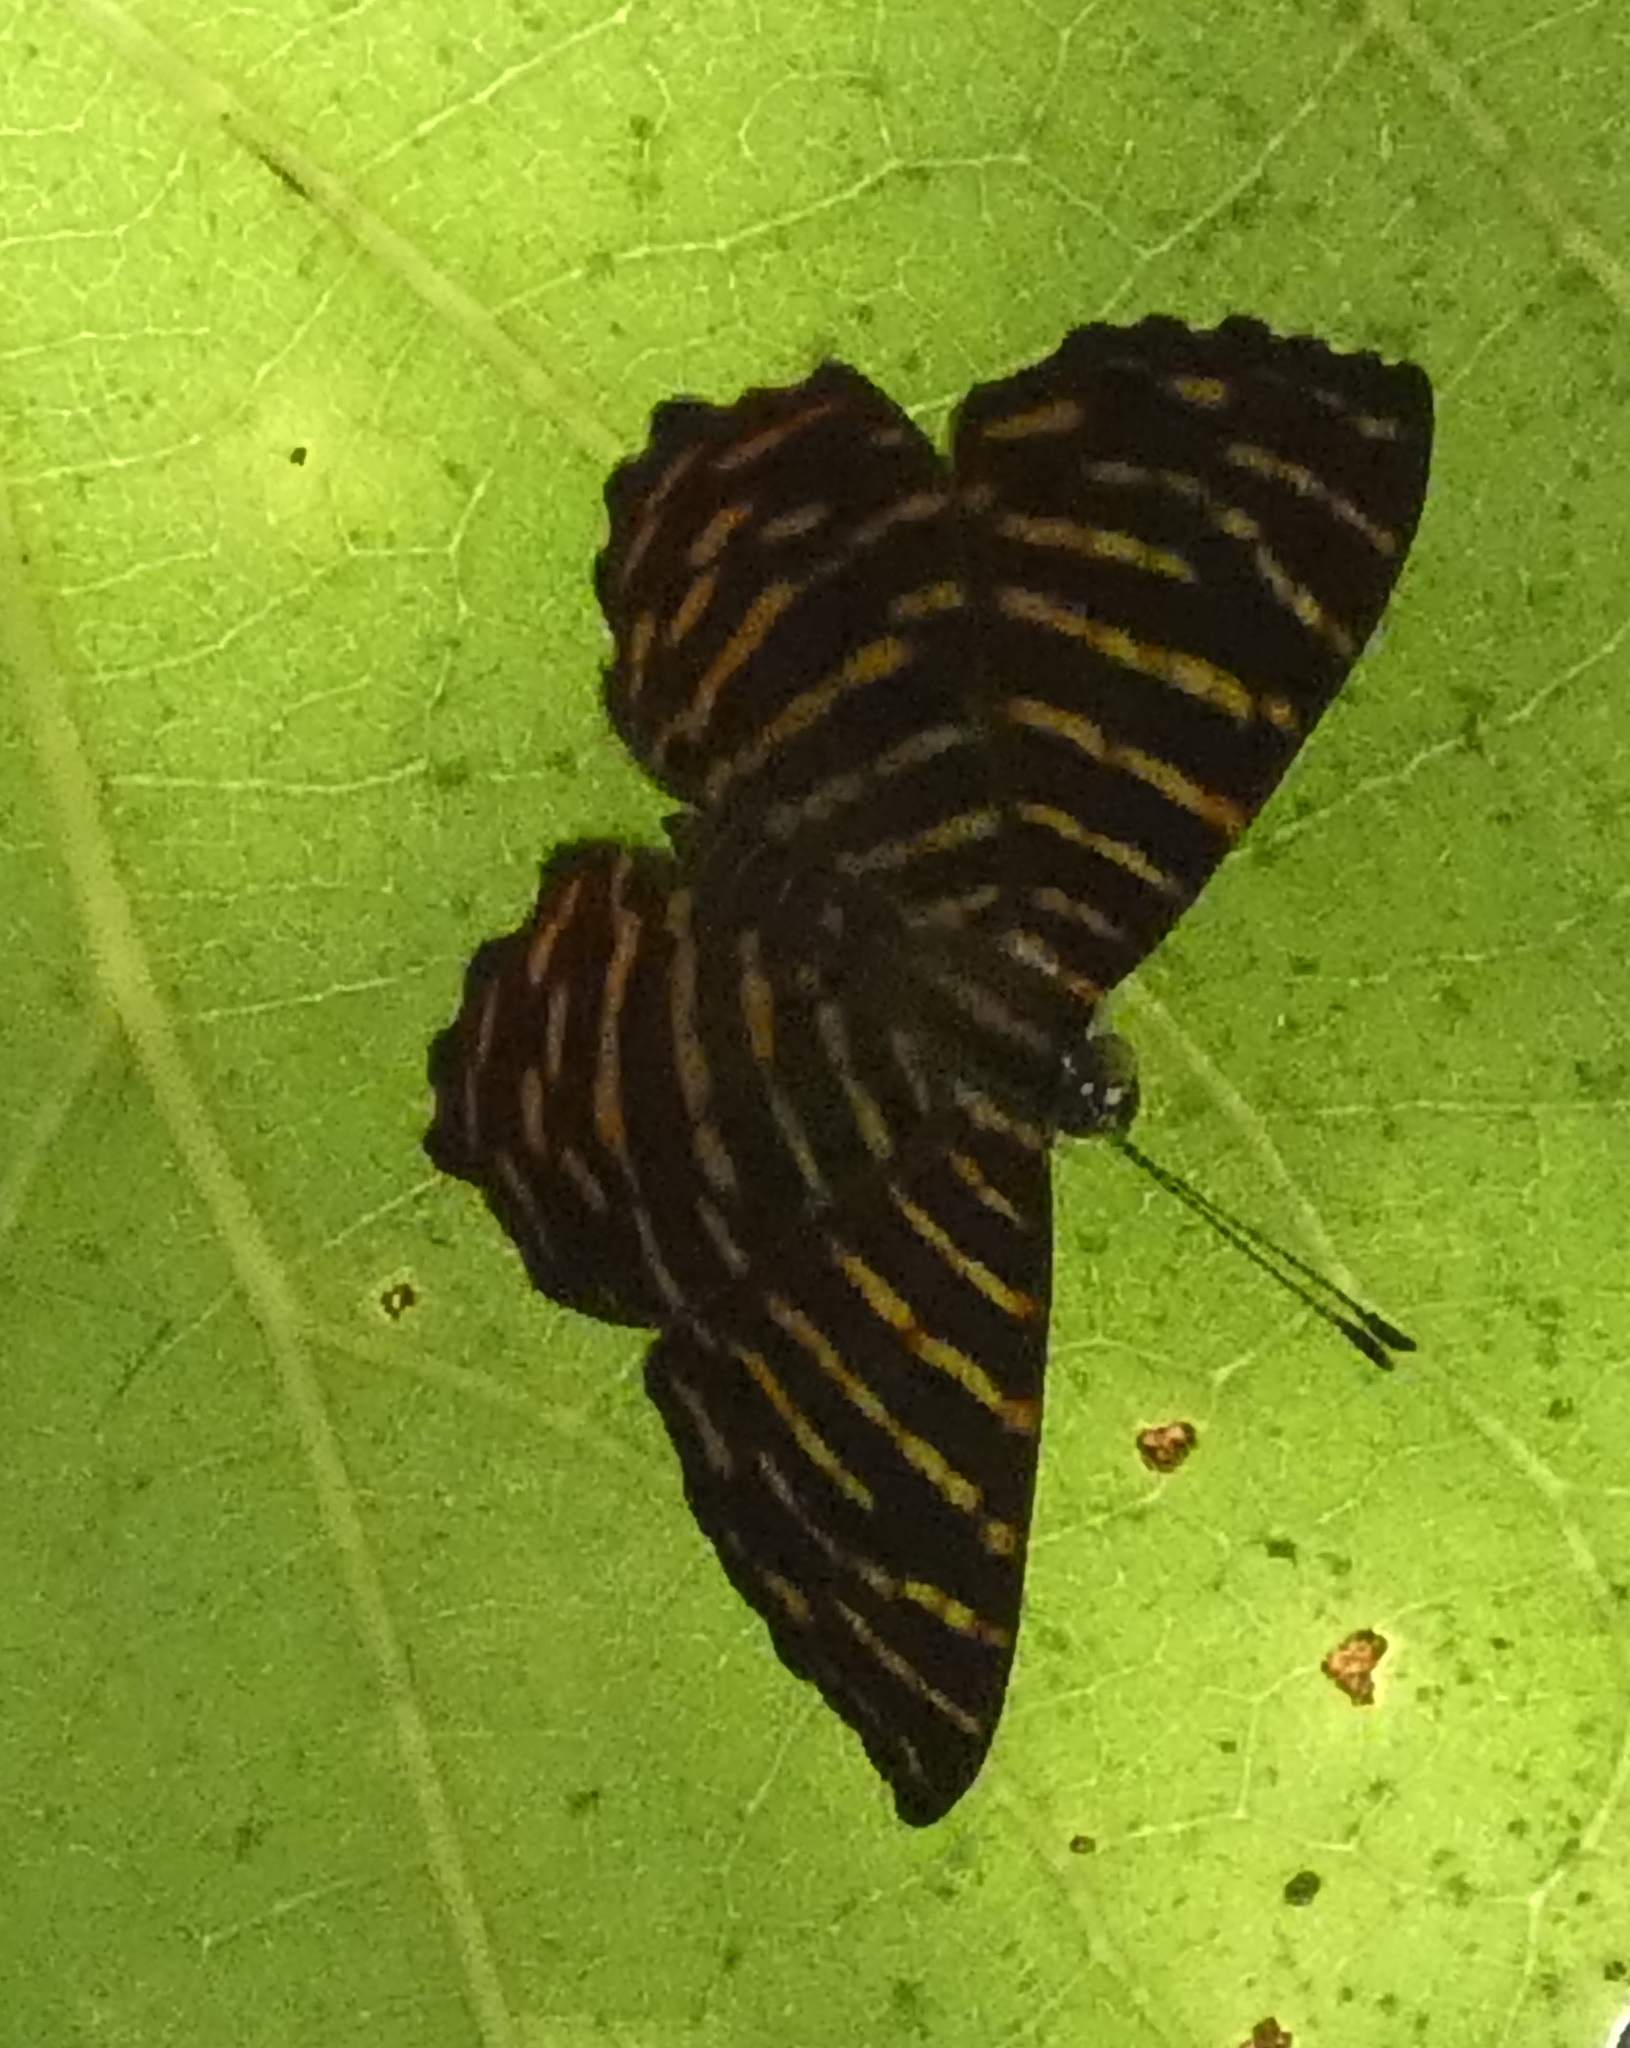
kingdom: Animalia
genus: Hyphilaria
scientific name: Hyphilaria thasus
